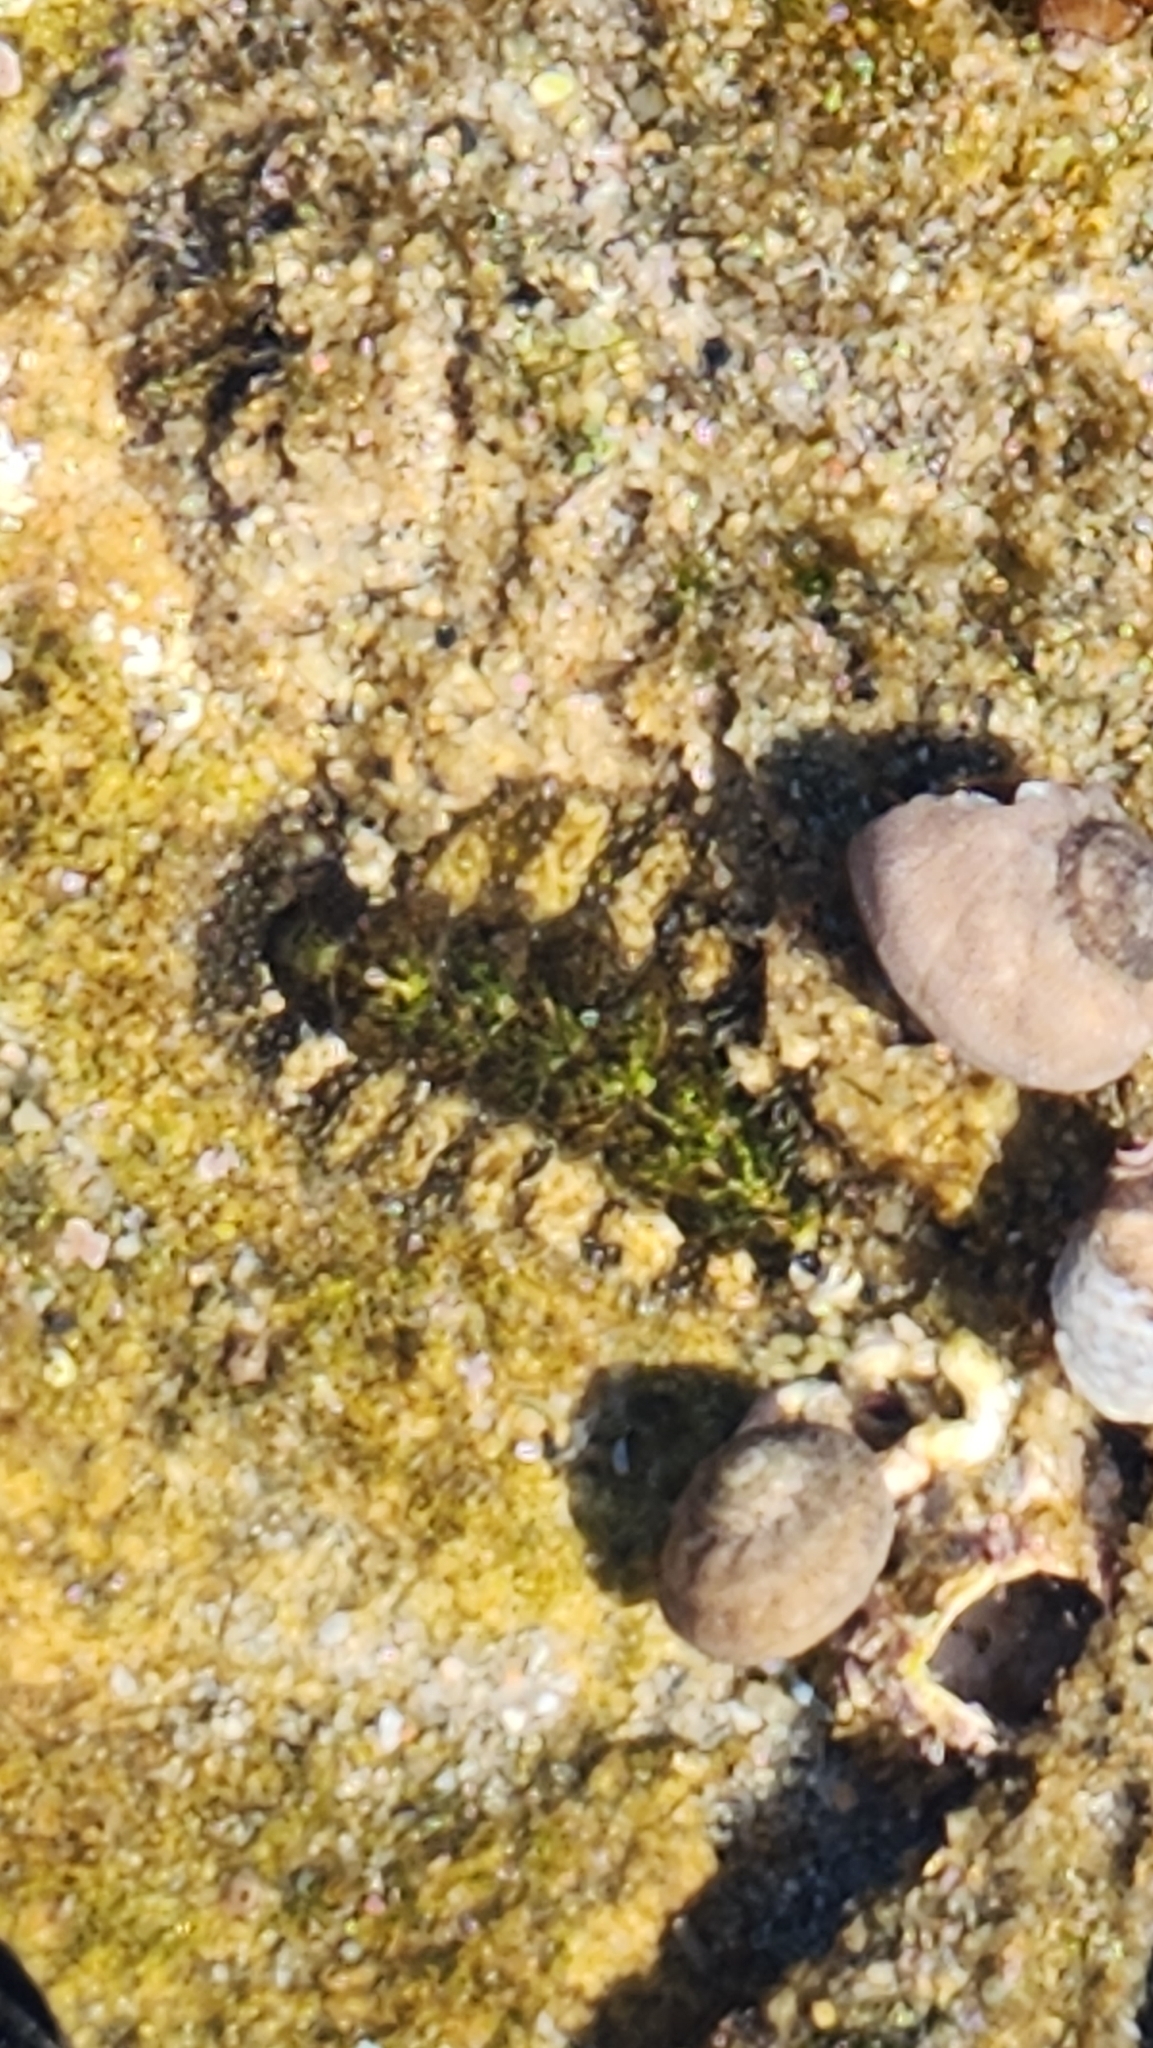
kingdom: Animalia
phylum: Mollusca
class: Polyplacophora
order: Chitonida
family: Tonicellidae
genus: Nuttallina
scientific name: Nuttallina californica
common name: California nuttall chiton
